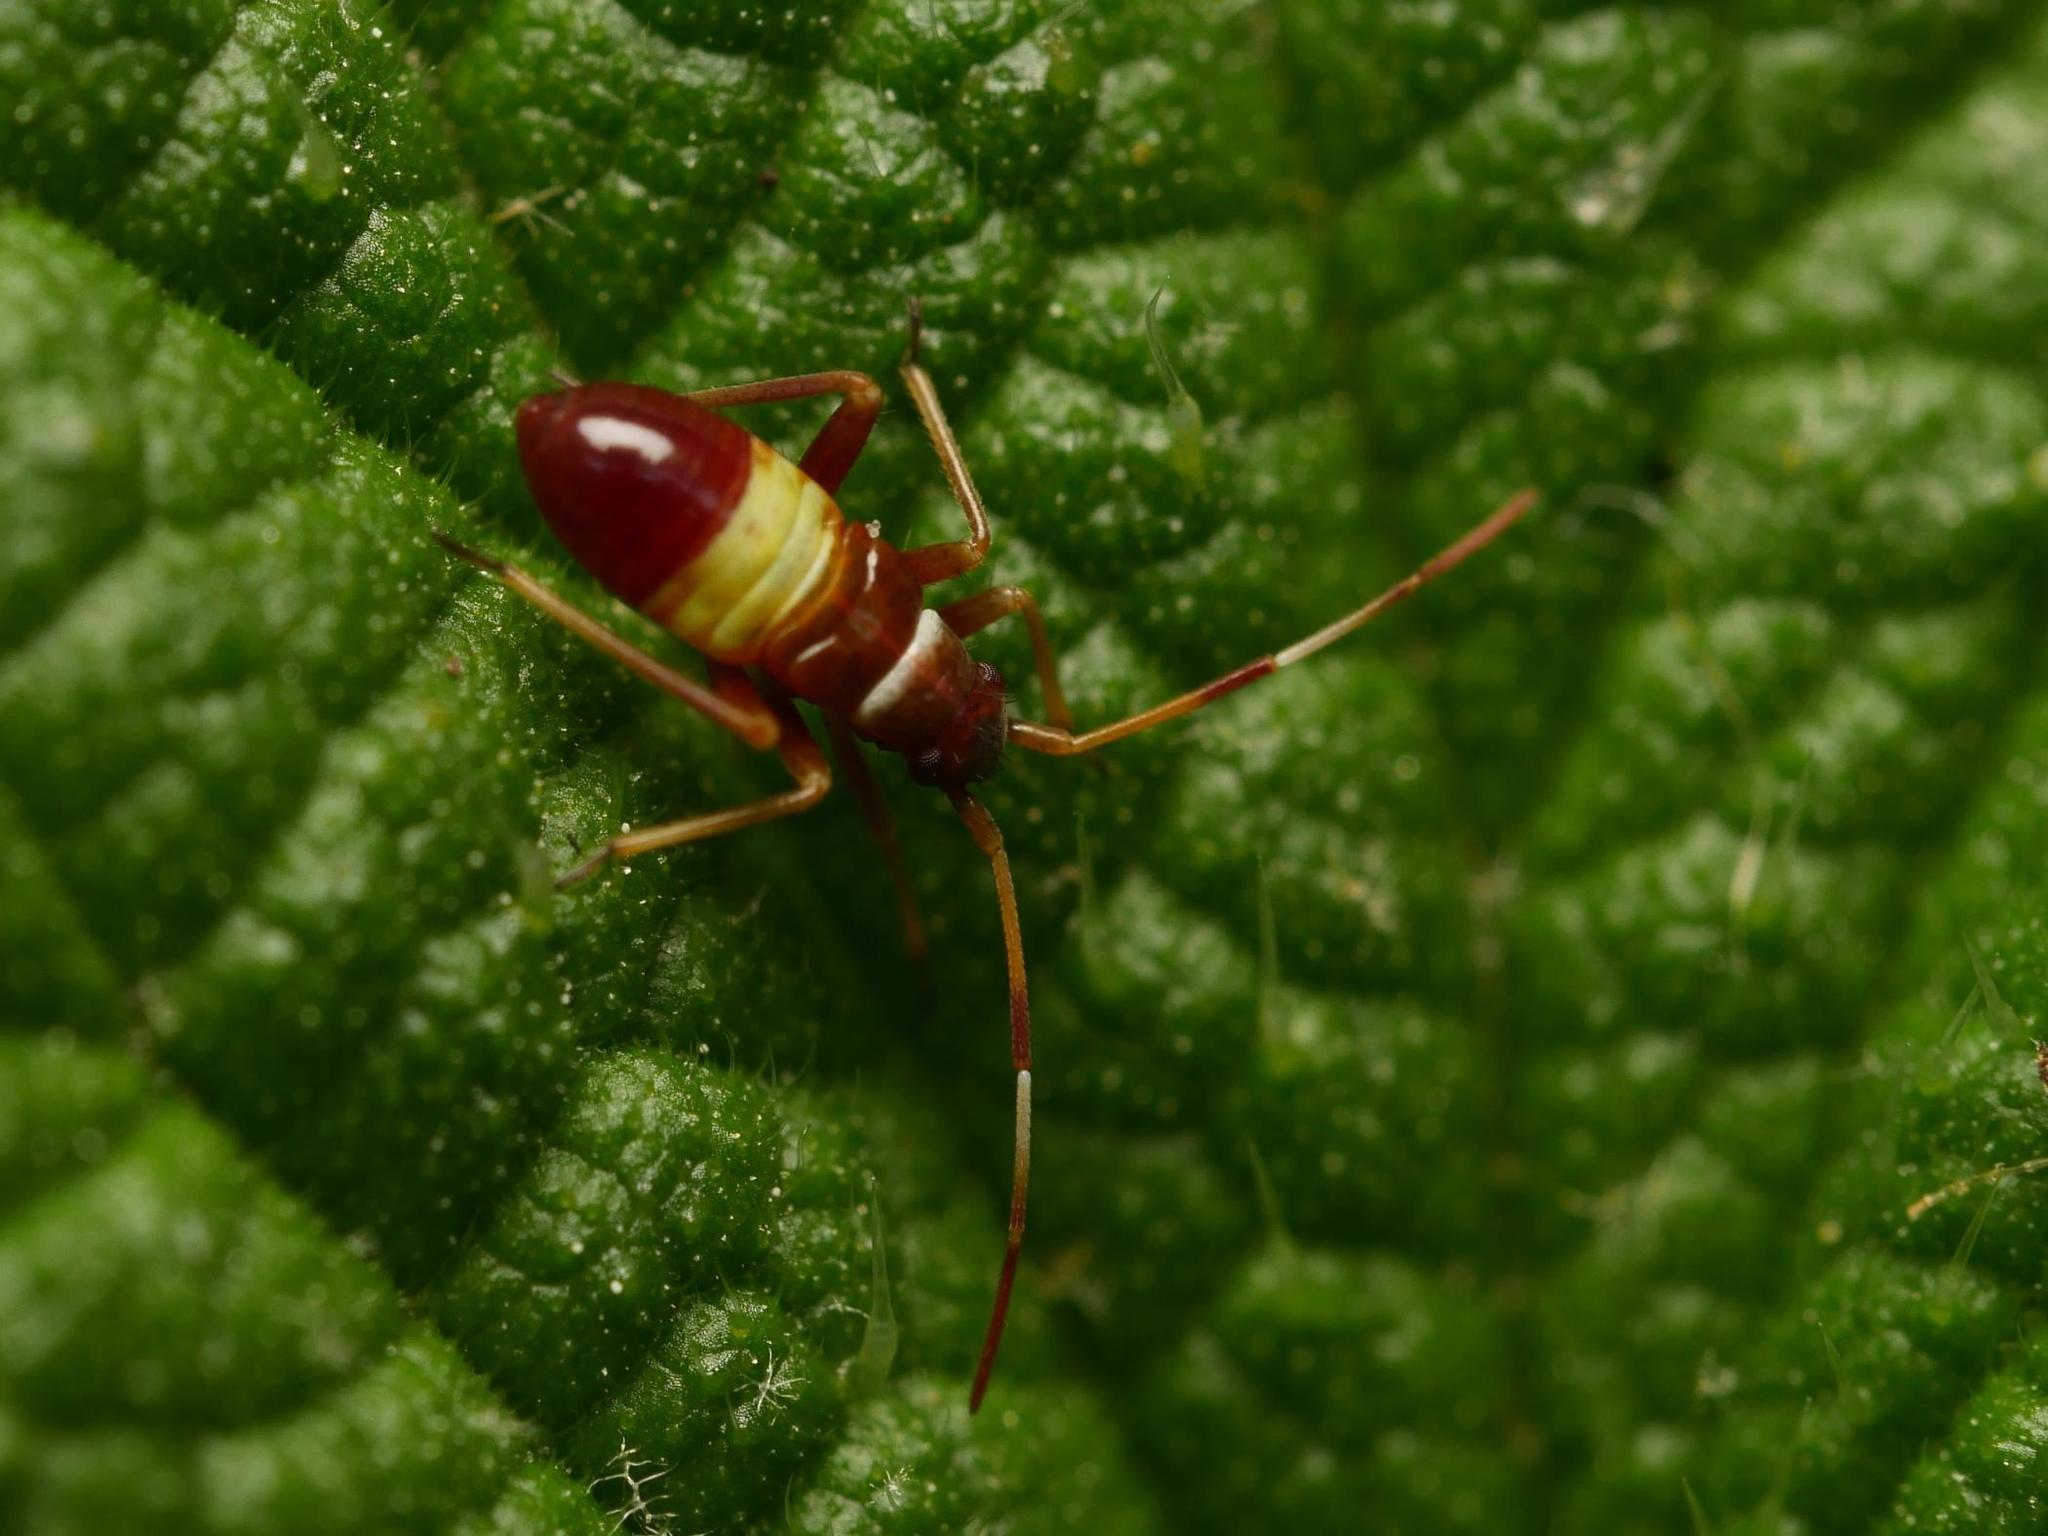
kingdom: Animalia
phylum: Arthropoda
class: Insecta
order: Hemiptera
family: Miridae
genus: Closterotomus
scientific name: Closterotomus biclavatus
